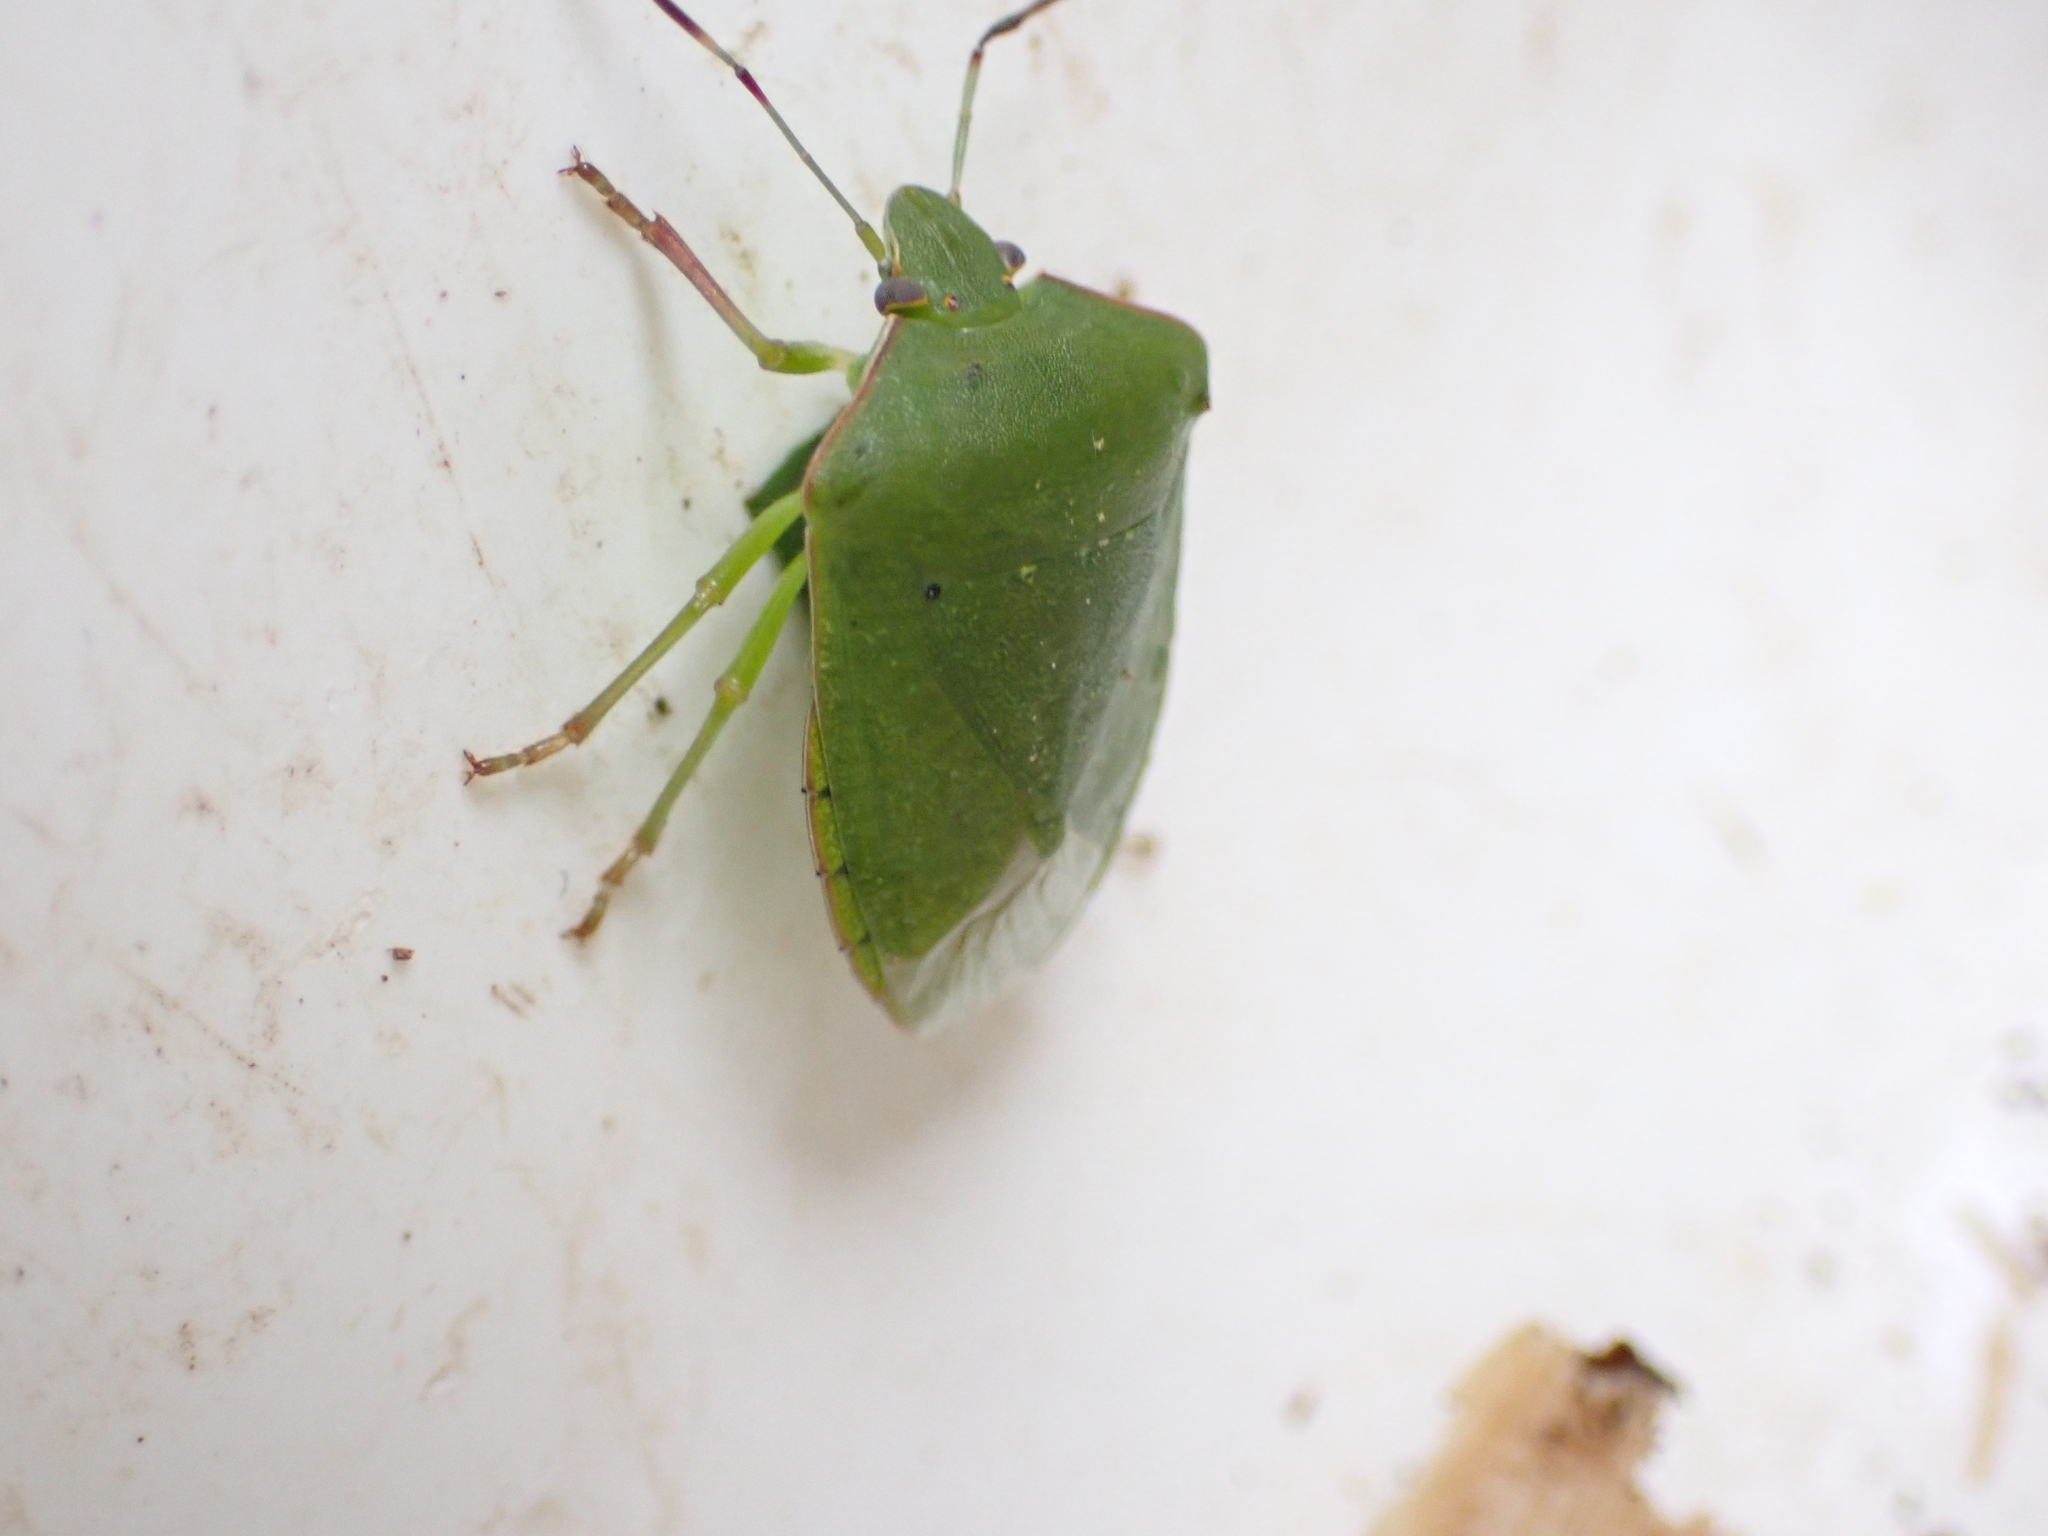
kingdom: Animalia
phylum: Arthropoda
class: Insecta
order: Hemiptera
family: Pentatomidae
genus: Nezara
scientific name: Nezara viridula
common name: Southern green stink bug
